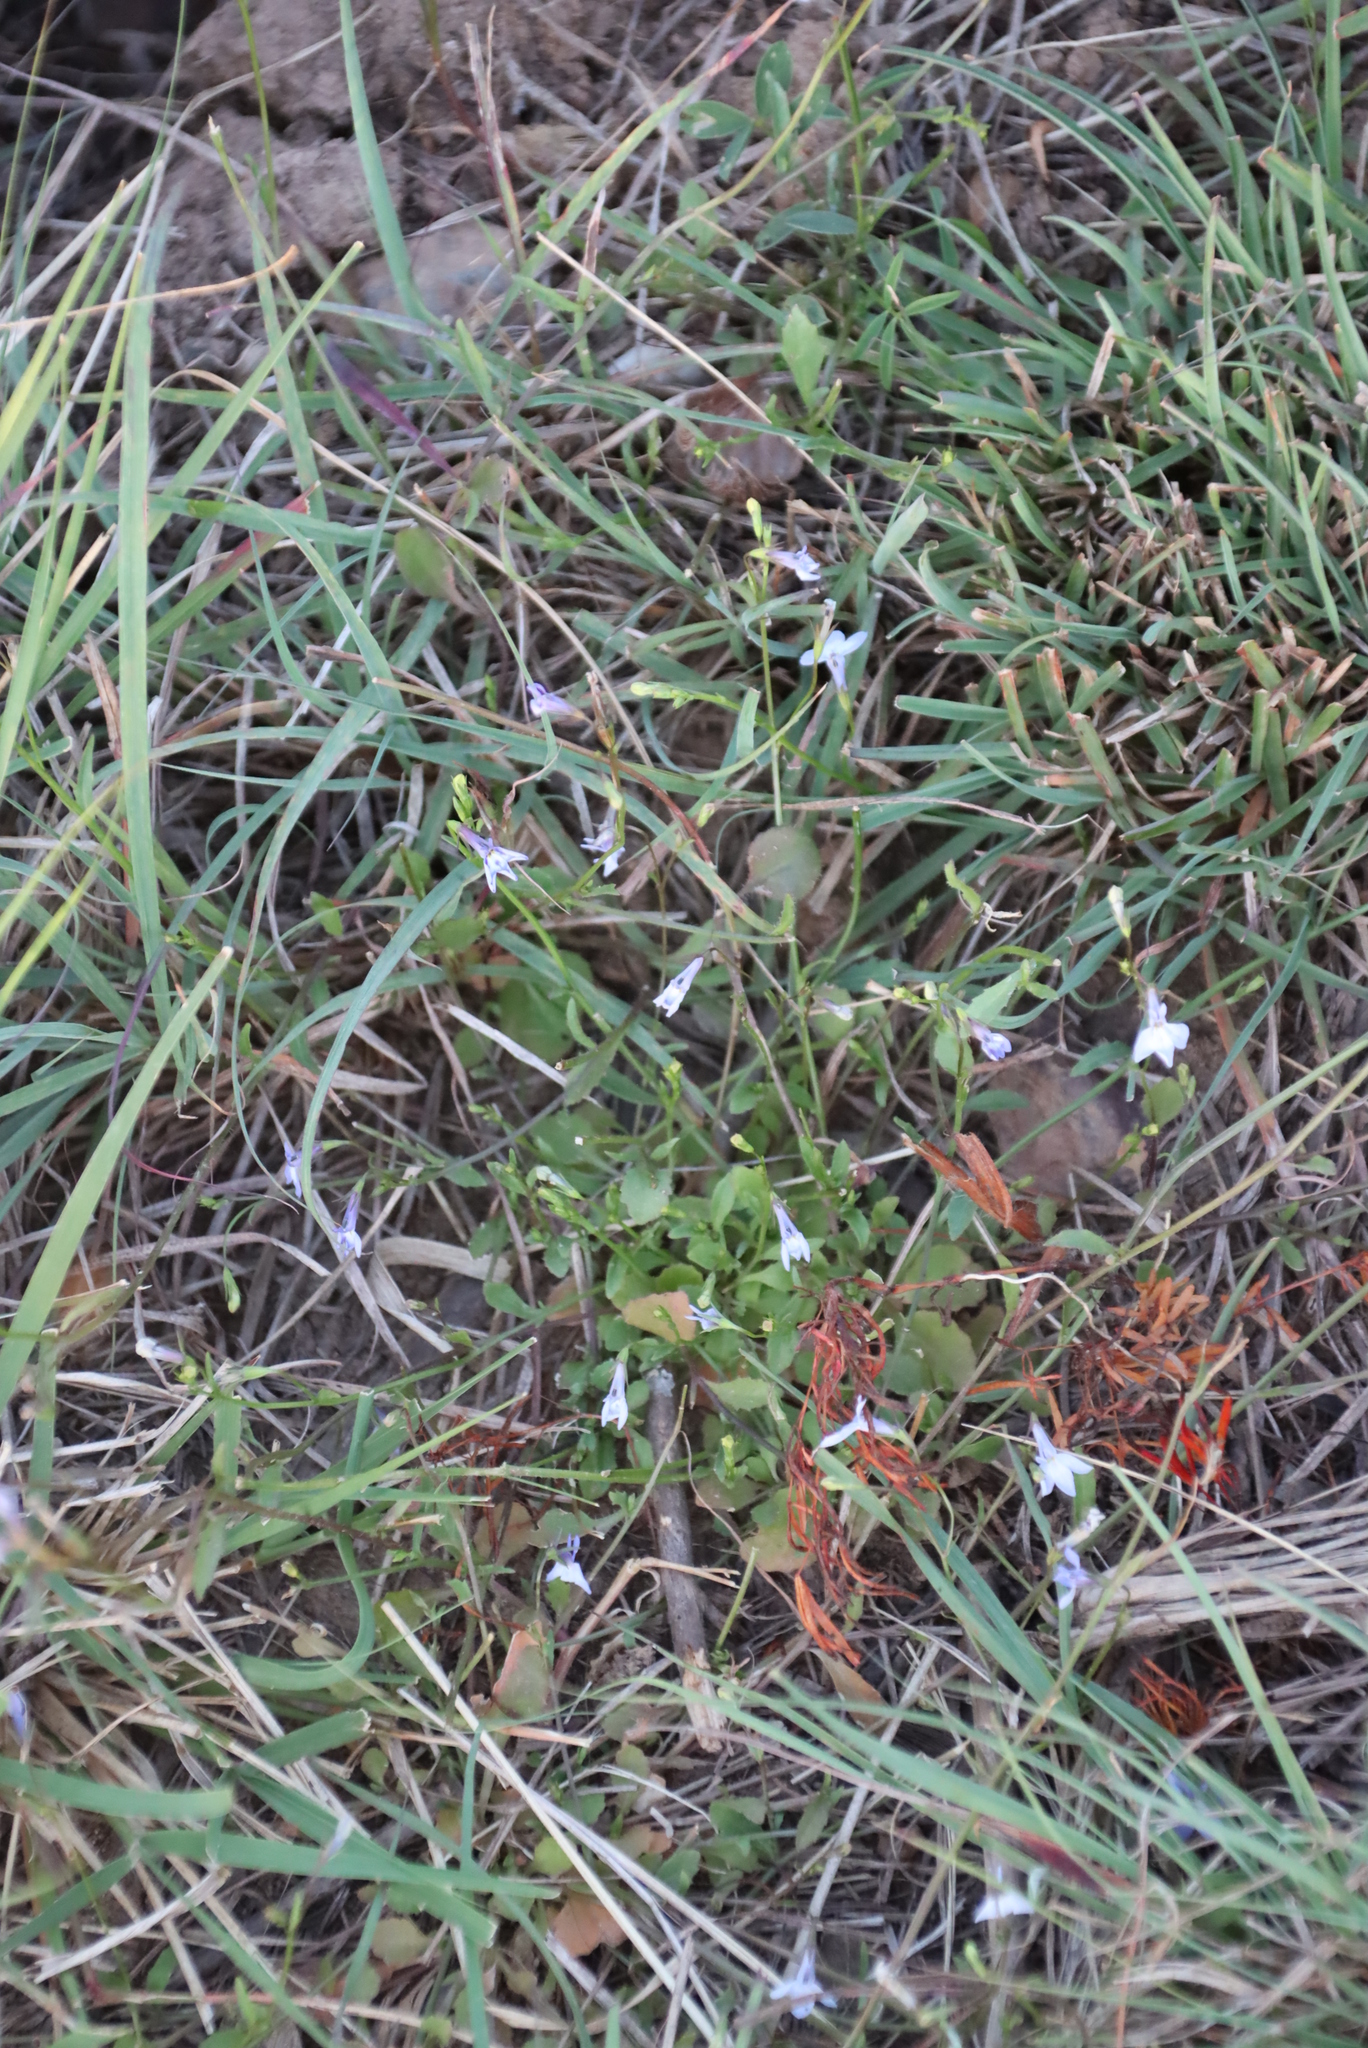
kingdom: Plantae
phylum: Tracheophyta
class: Magnoliopsida
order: Asterales
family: Campanulaceae
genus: Lobelia
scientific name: Lobelia erinus
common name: Edging lobelia
